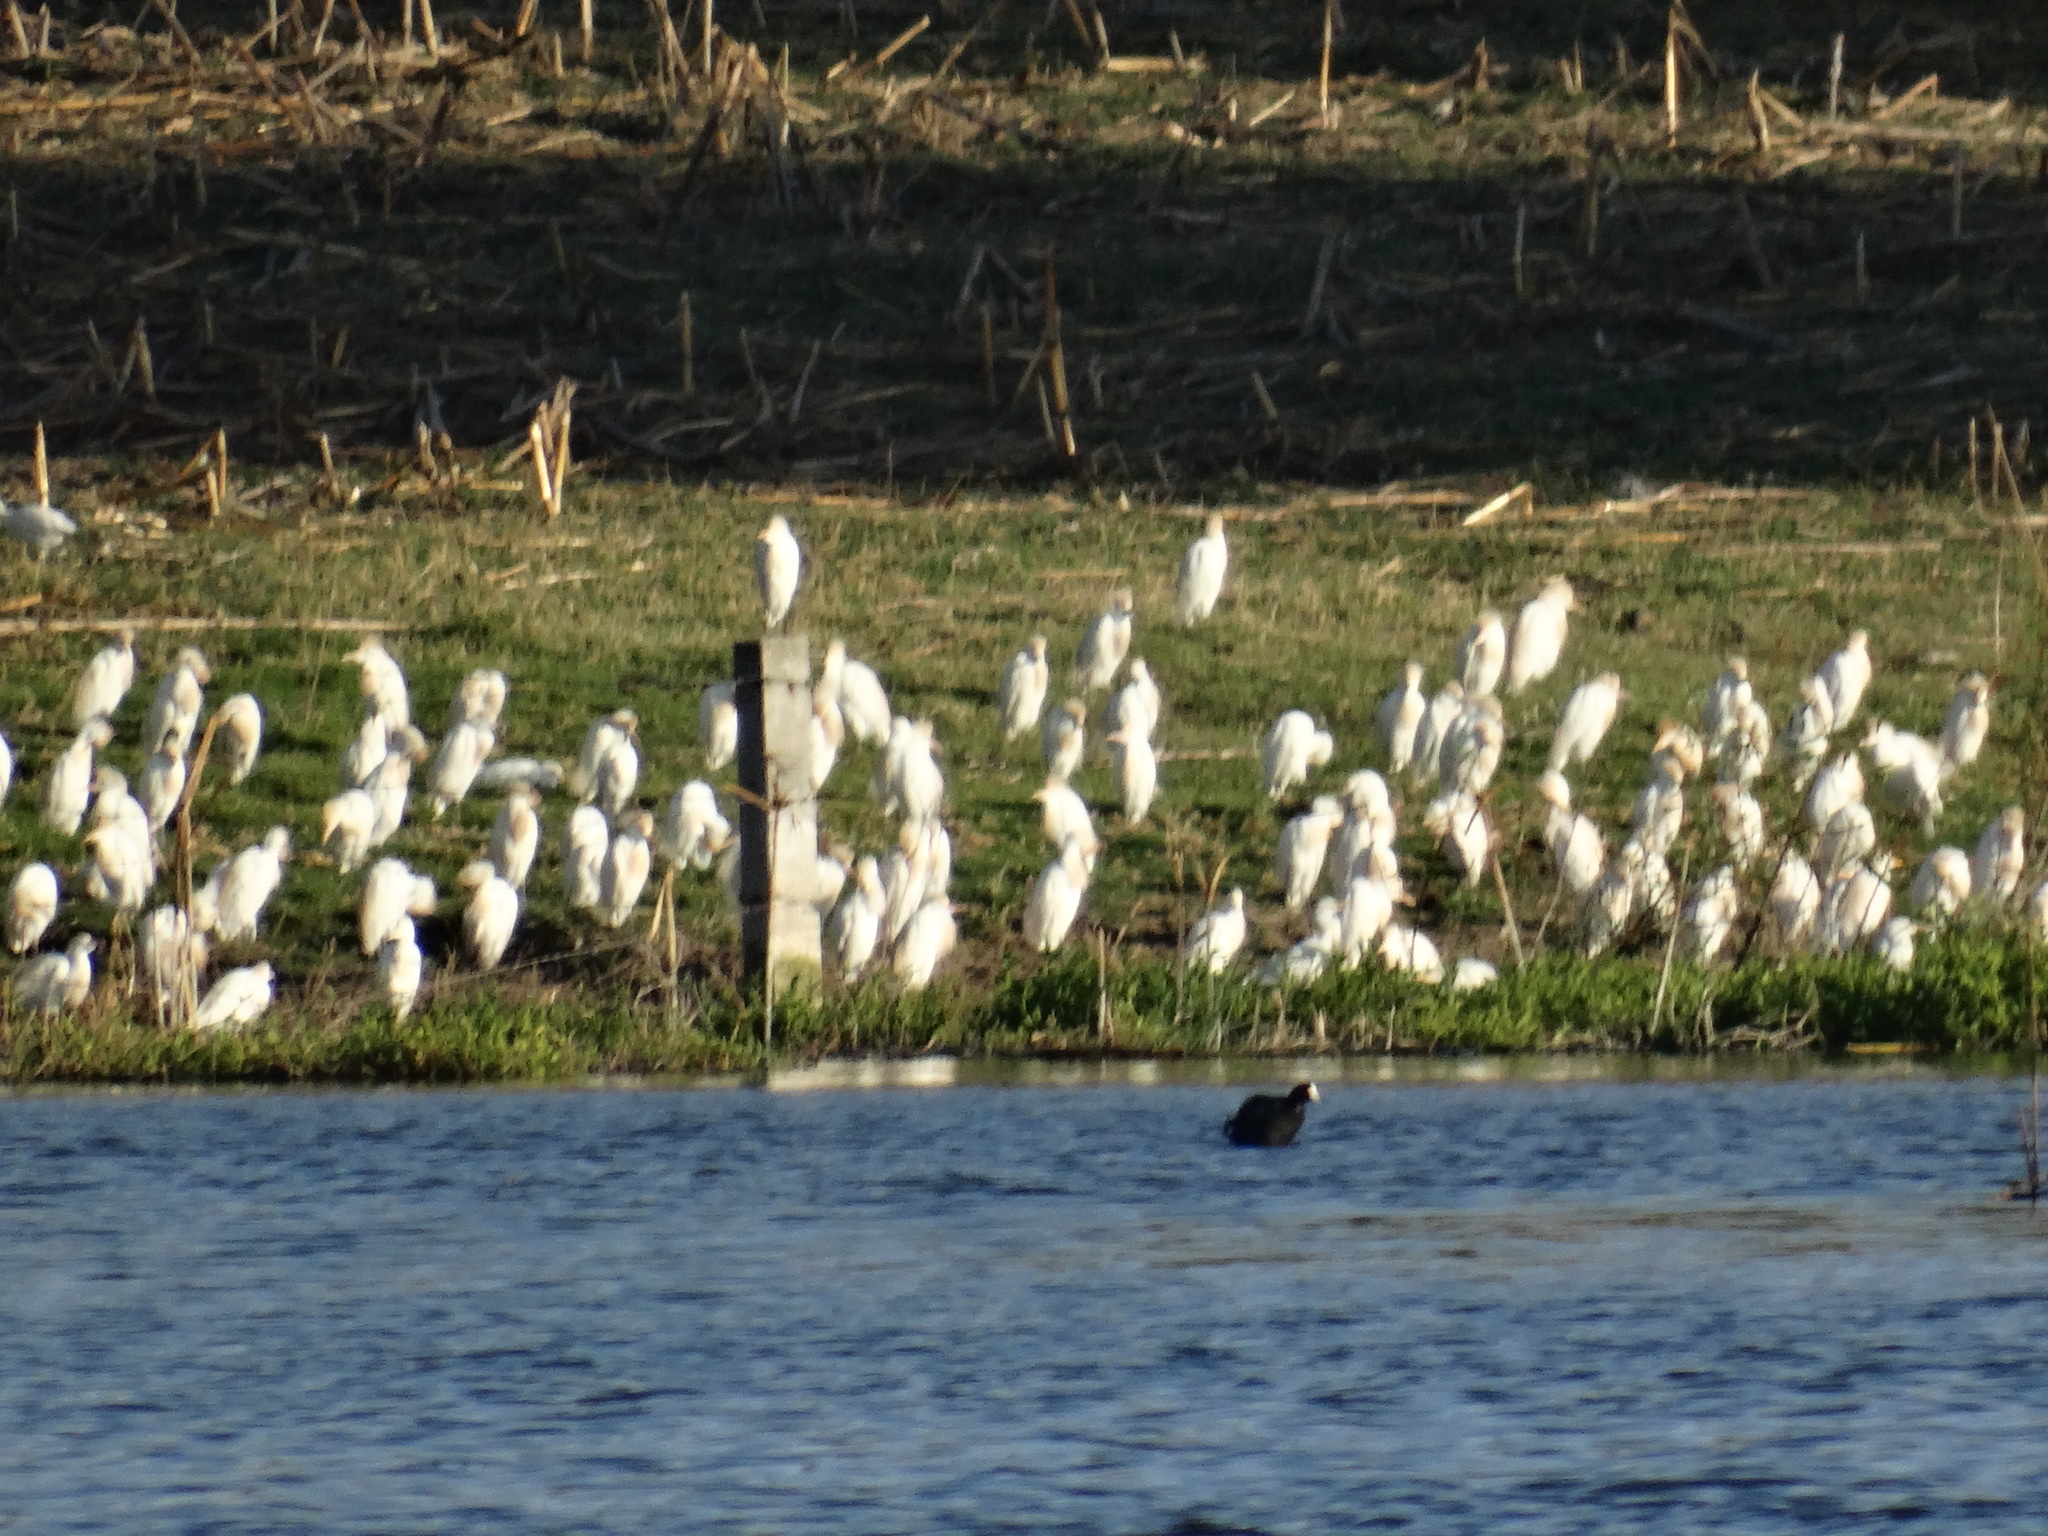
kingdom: Animalia
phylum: Chordata
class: Aves
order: Pelecaniformes
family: Ardeidae
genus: Bubulcus
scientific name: Bubulcus ibis
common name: Cattle egret
